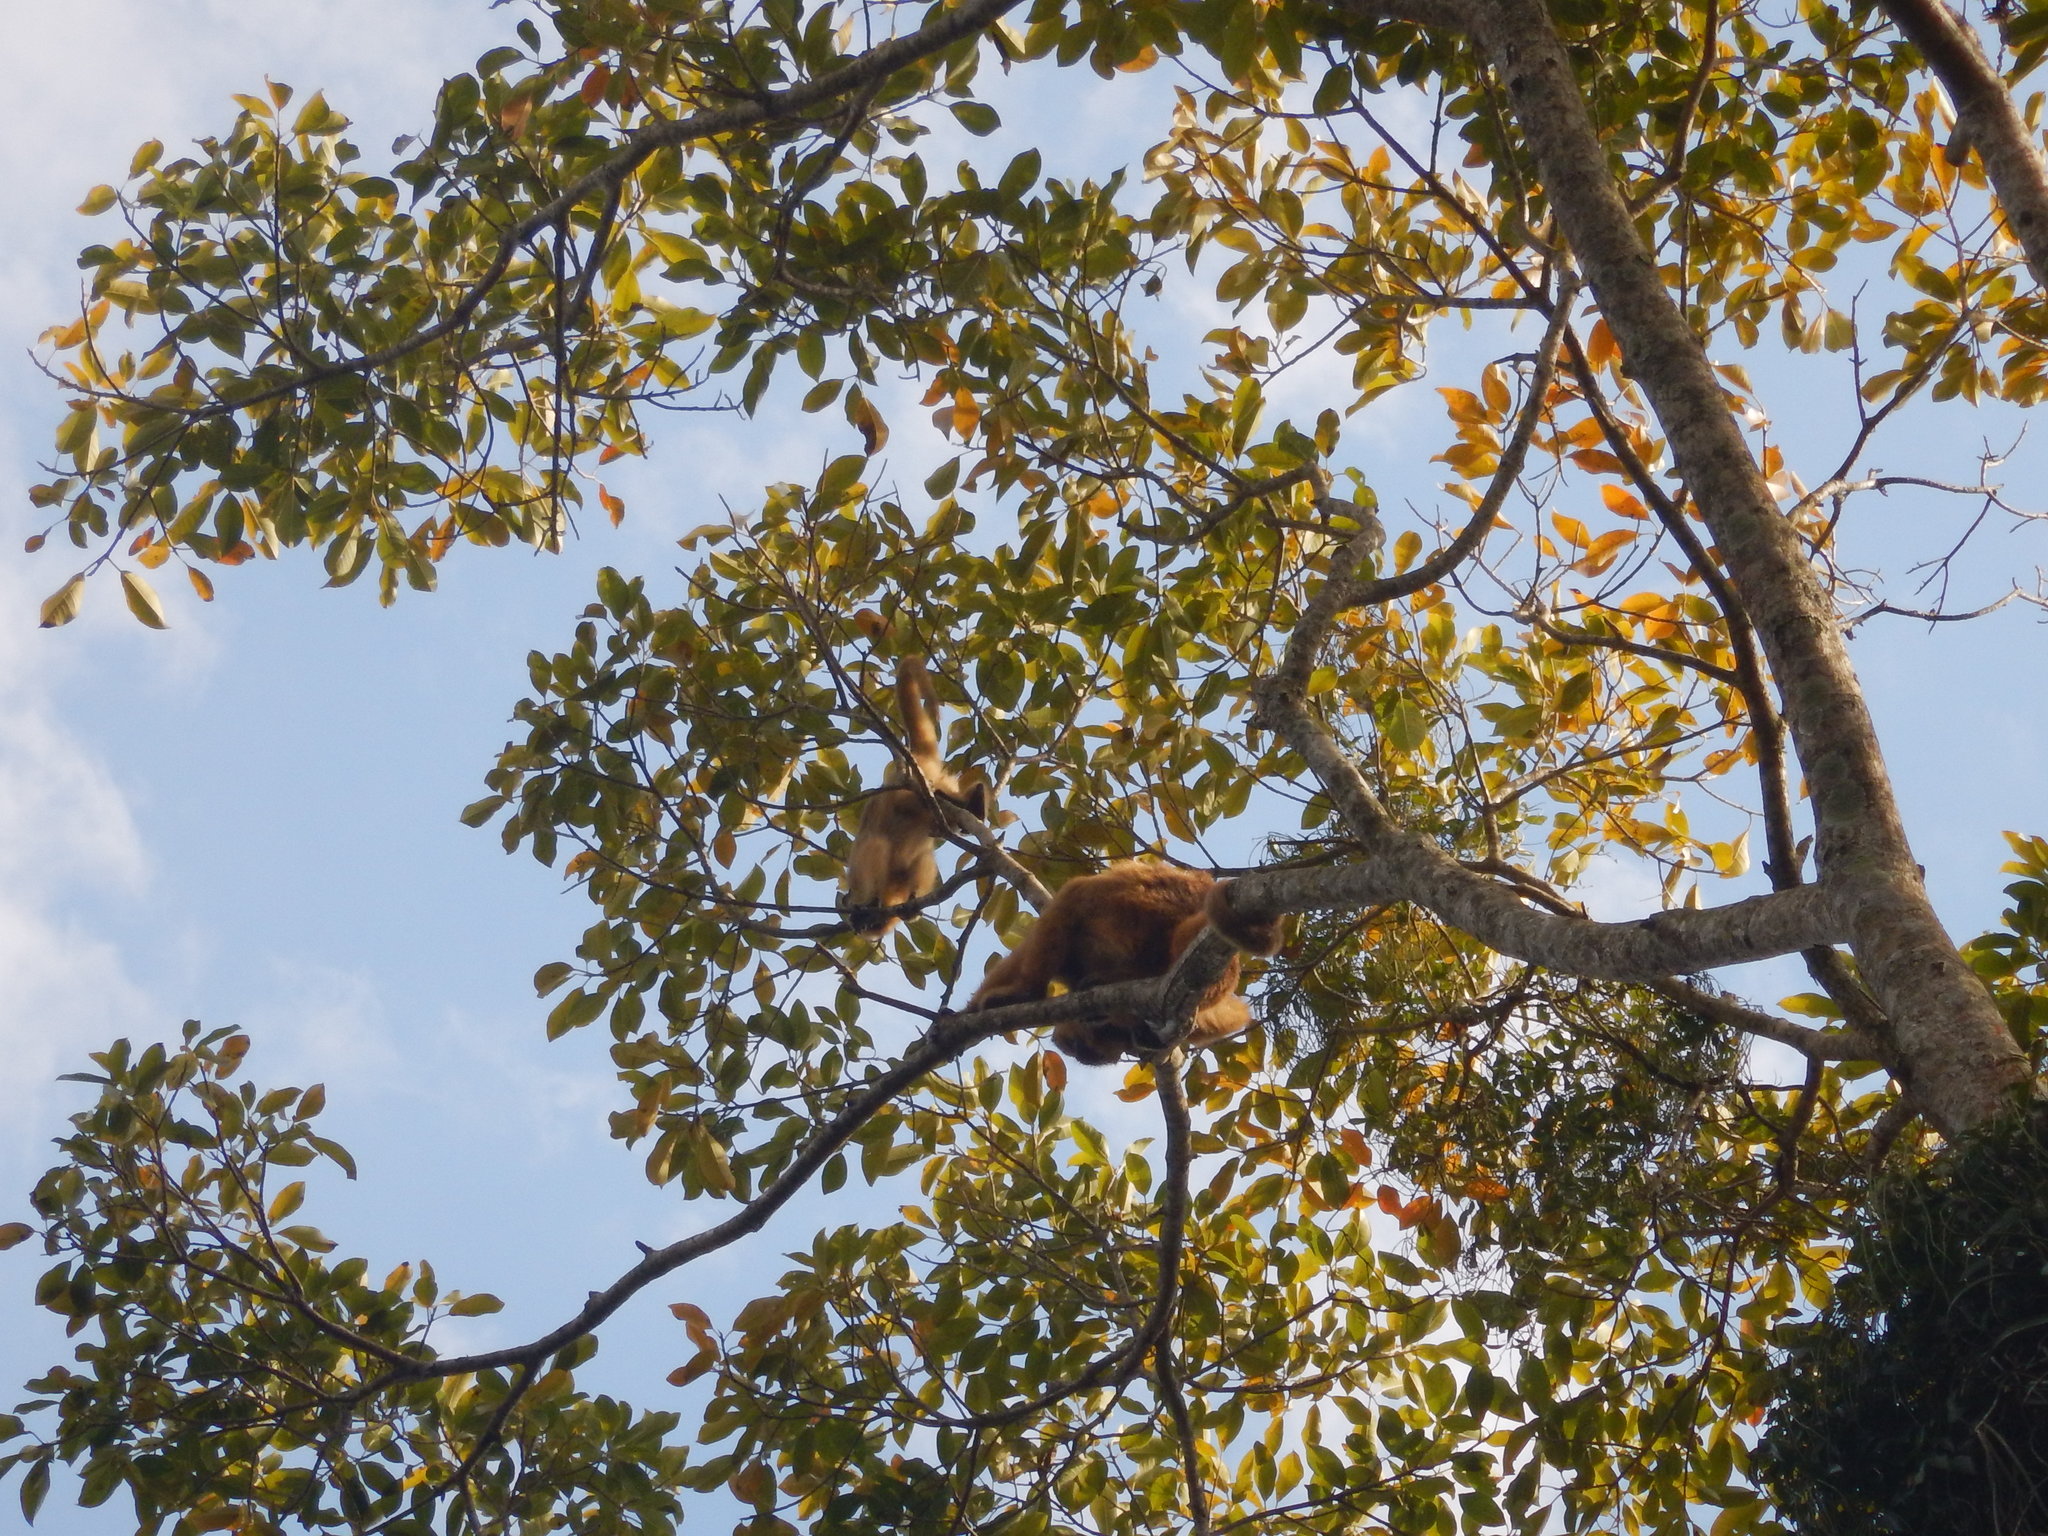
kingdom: Animalia
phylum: Chordata
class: Mammalia
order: Primates
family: Atelidae
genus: Alouatta
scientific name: Alouatta caraya
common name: Black howler
